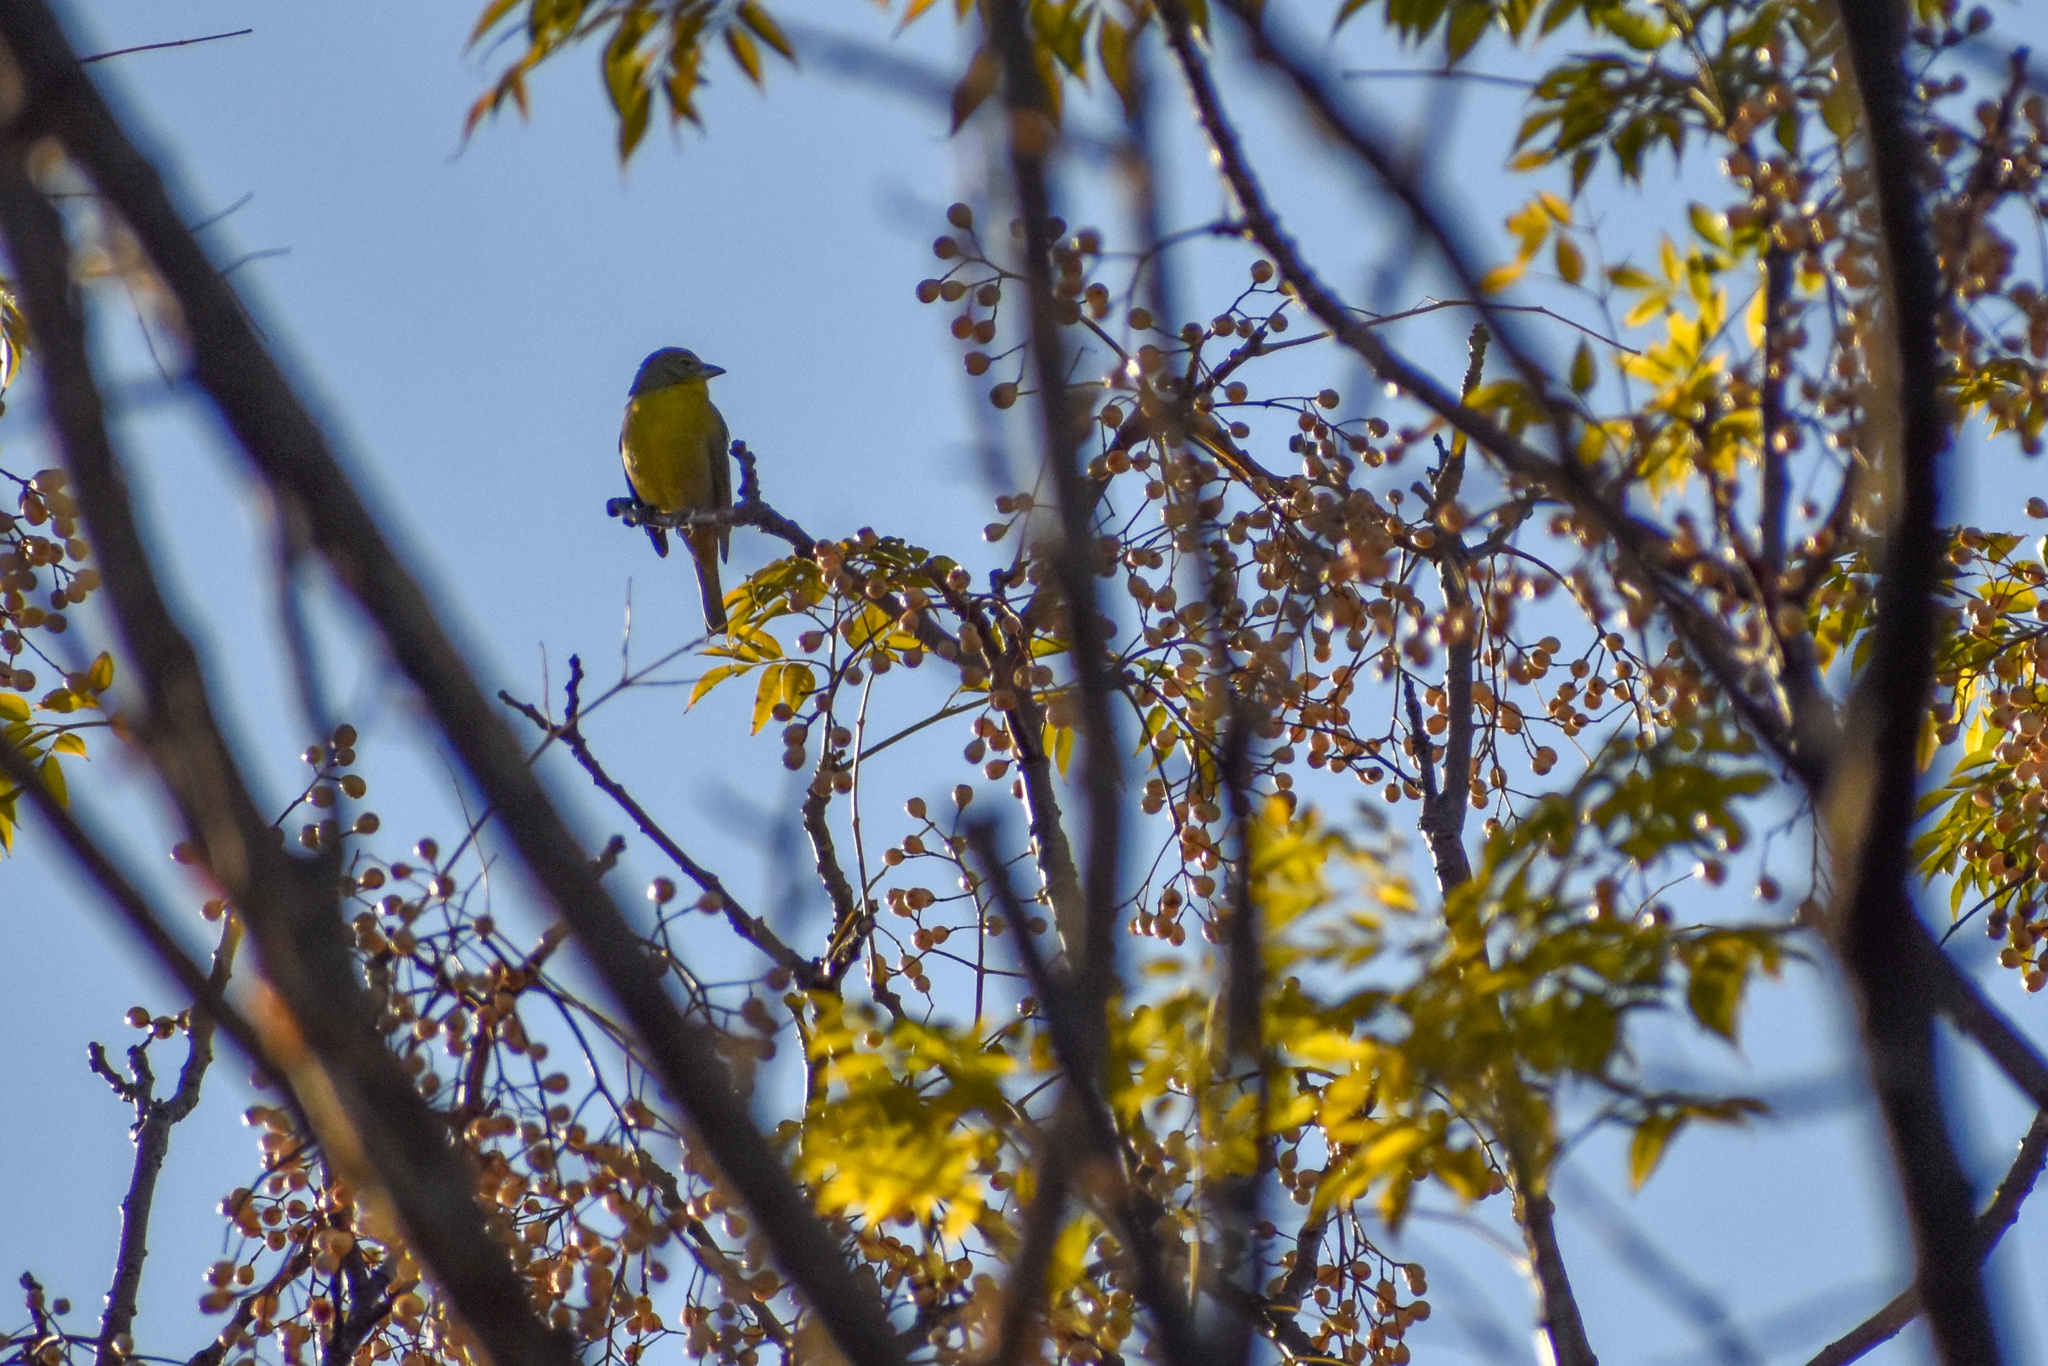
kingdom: Animalia
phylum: Chordata
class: Aves
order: Passeriformes
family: Cardinalidae
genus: Piranga
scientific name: Piranga flava
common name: Red tanager
